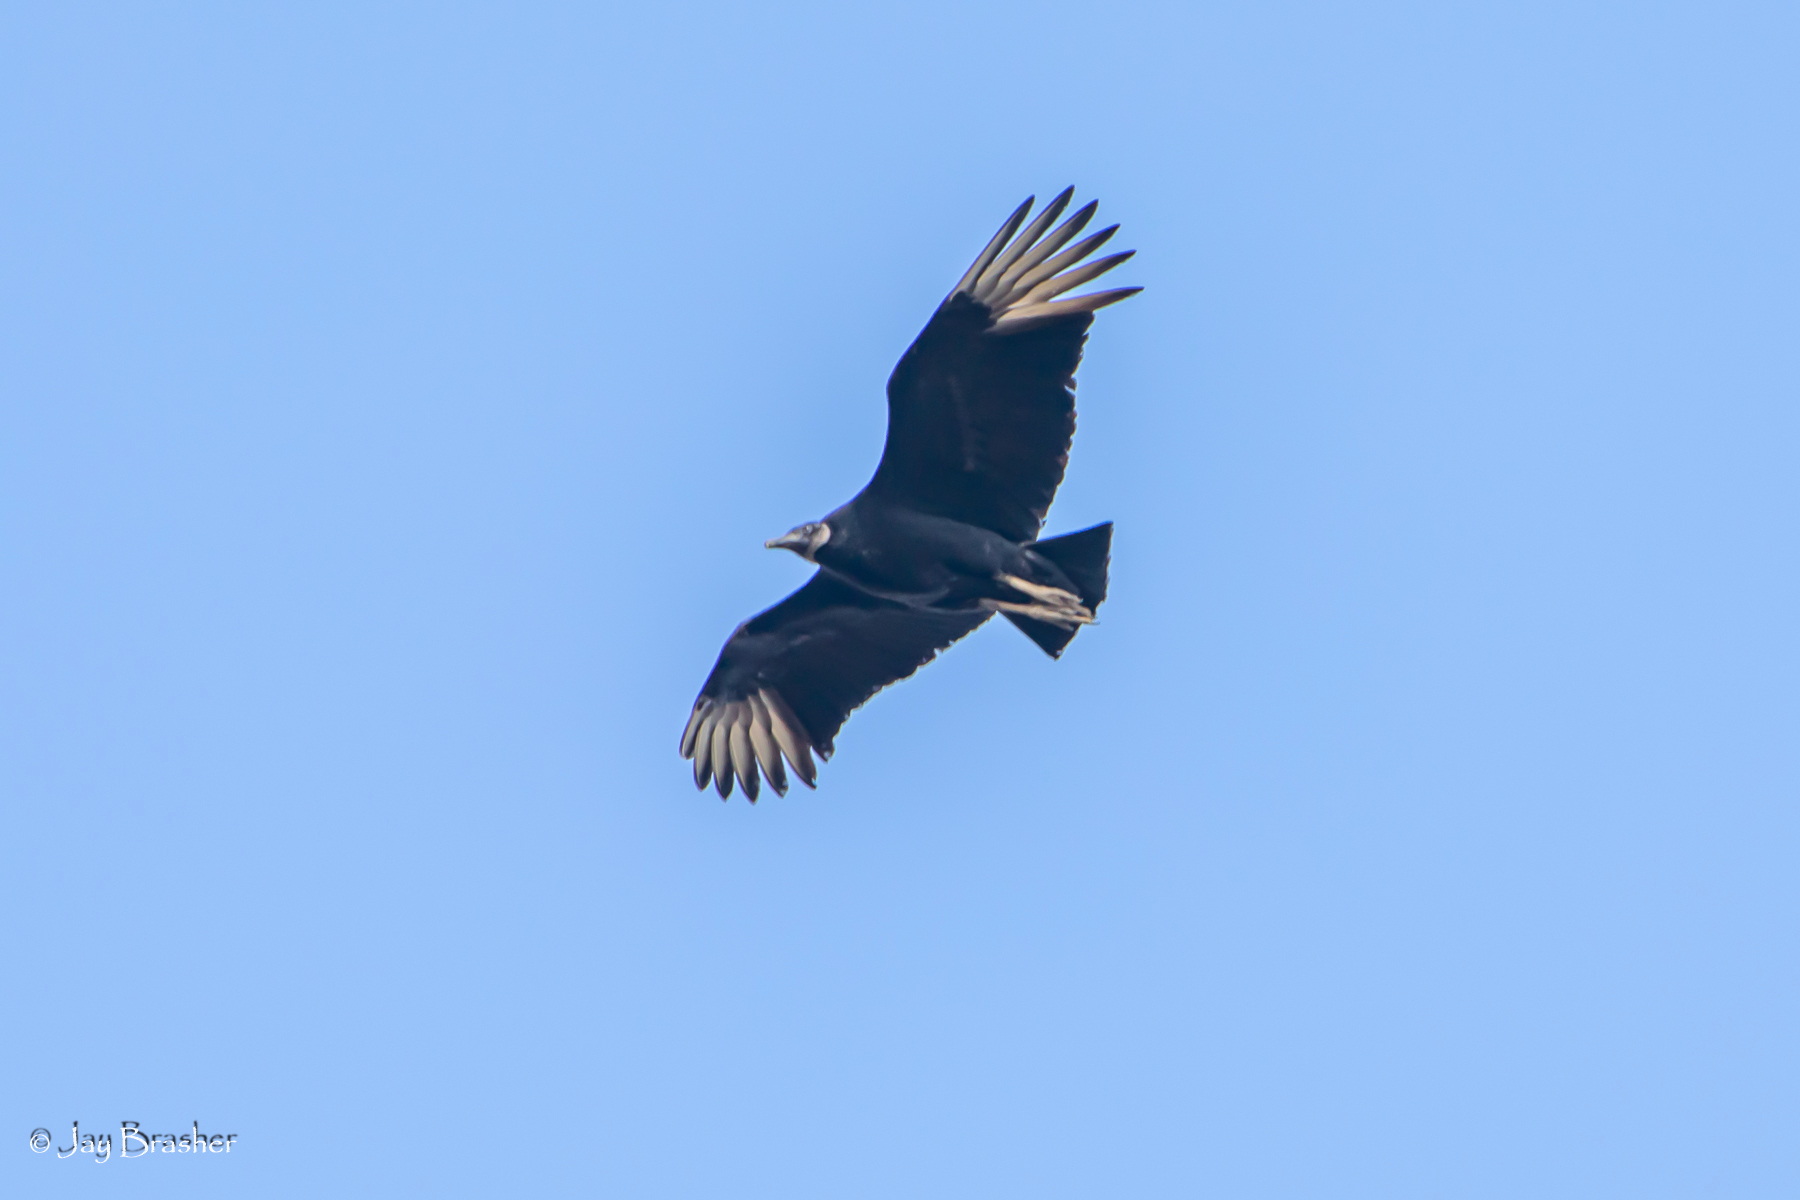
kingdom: Animalia
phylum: Chordata
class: Aves
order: Accipitriformes
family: Cathartidae
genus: Coragyps
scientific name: Coragyps atratus
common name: Black vulture
